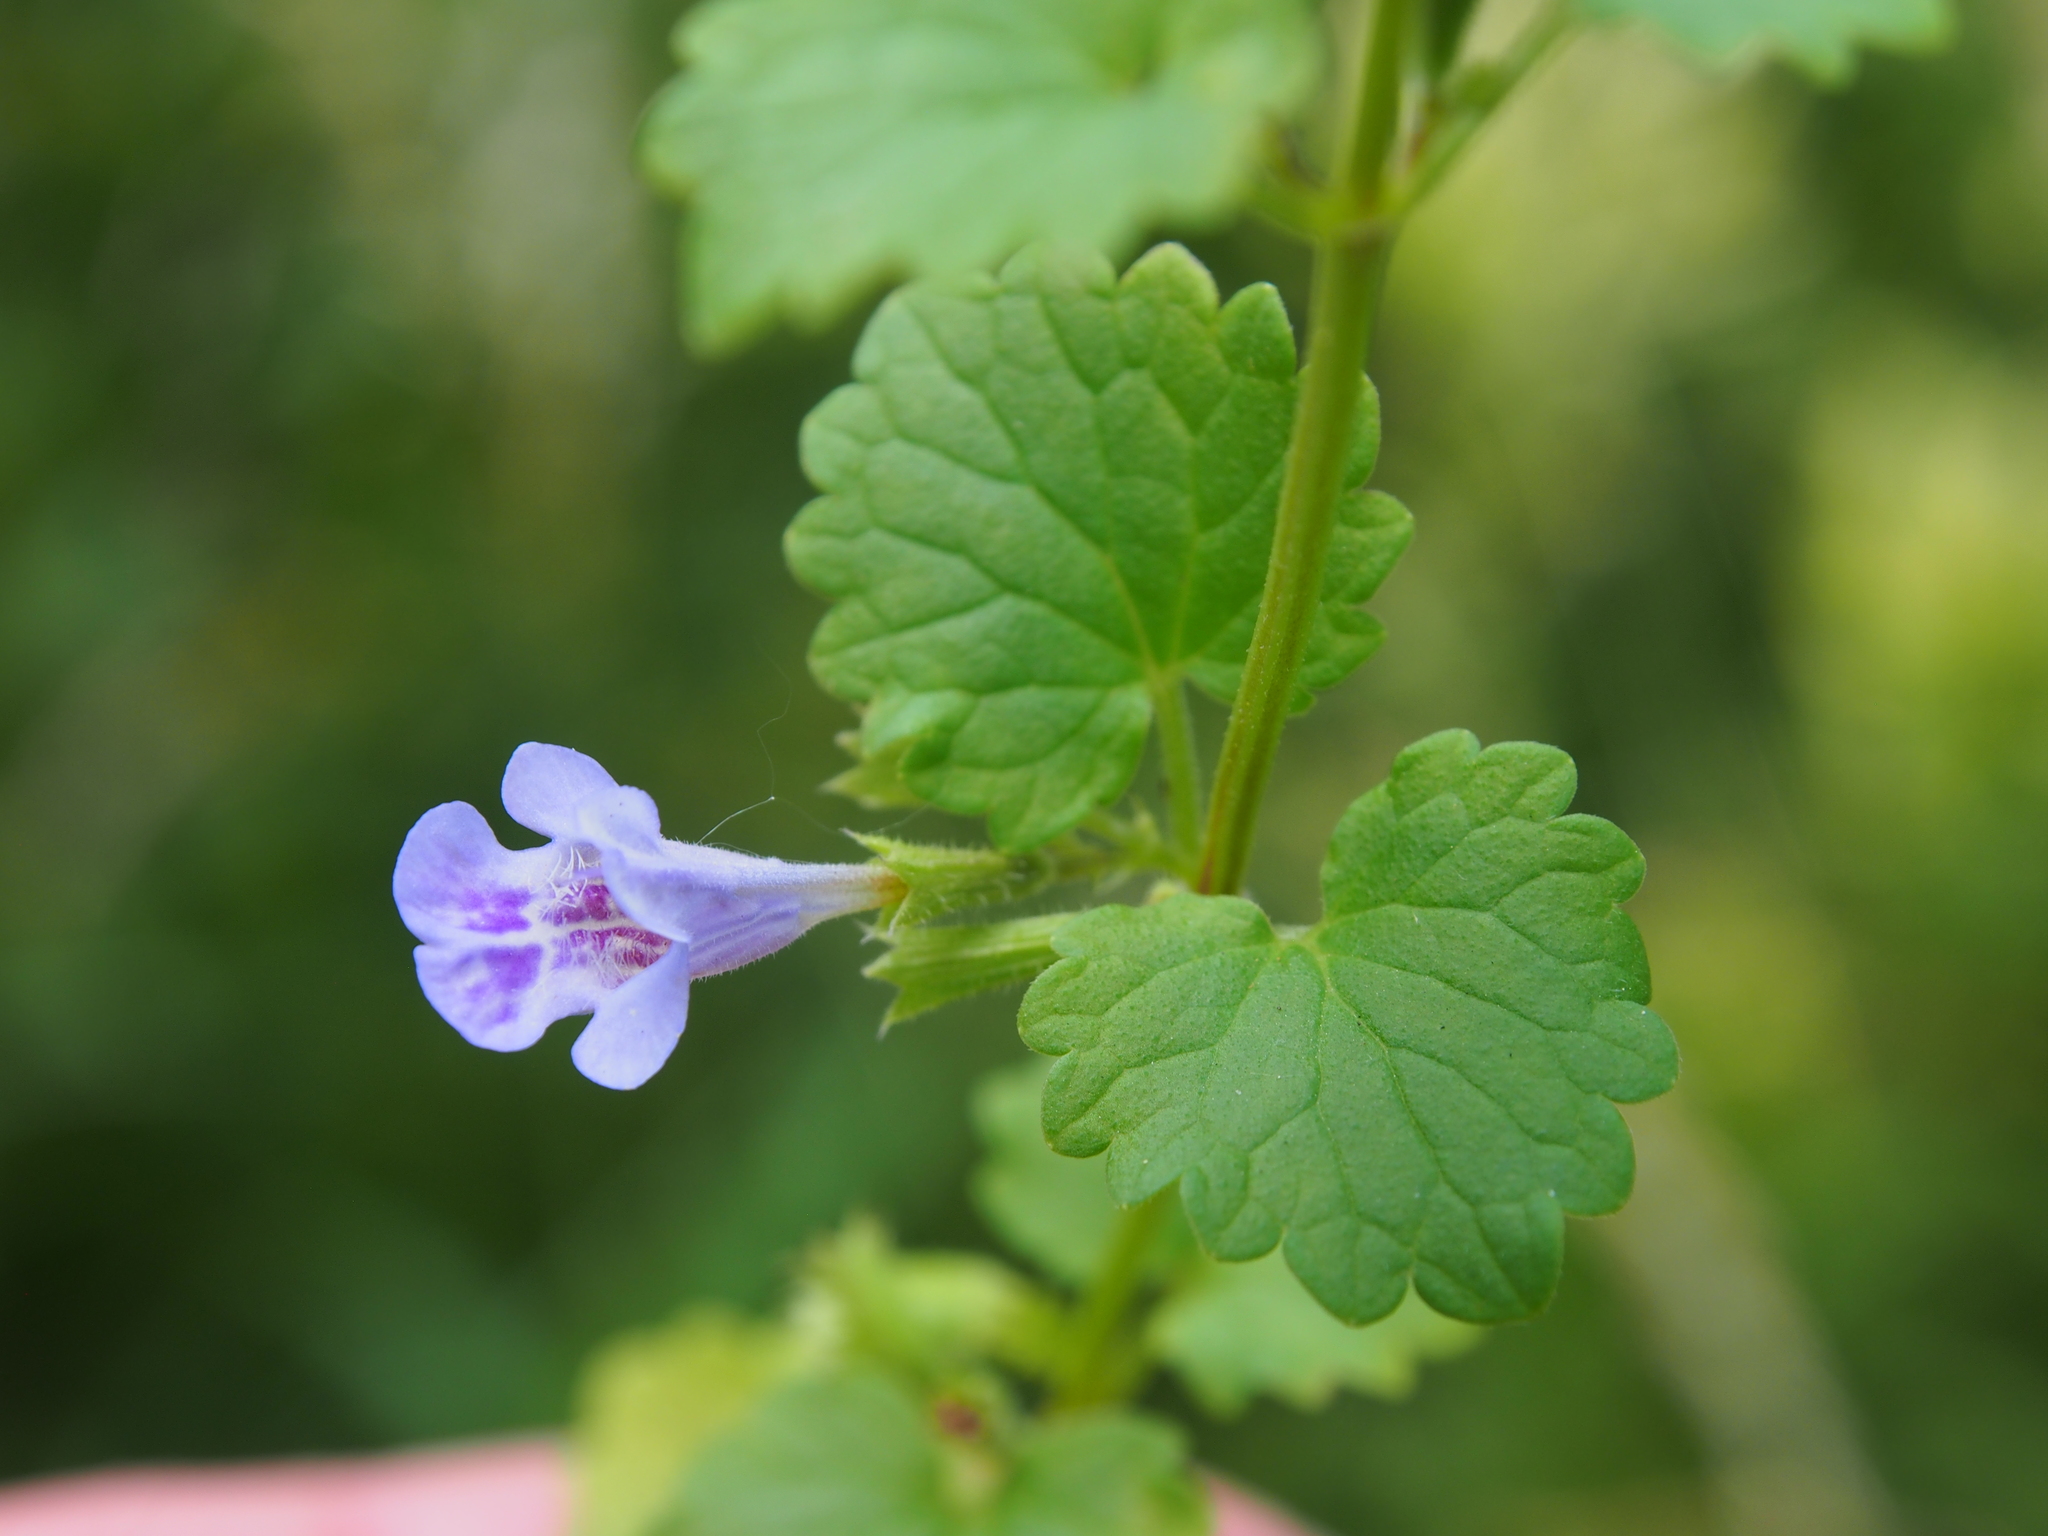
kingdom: Plantae
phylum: Tracheophyta
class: Magnoliopsida
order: Lamiales
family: Lamiaceae
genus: Glechoma
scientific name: Glechoma hederacea
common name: Ground ivy
